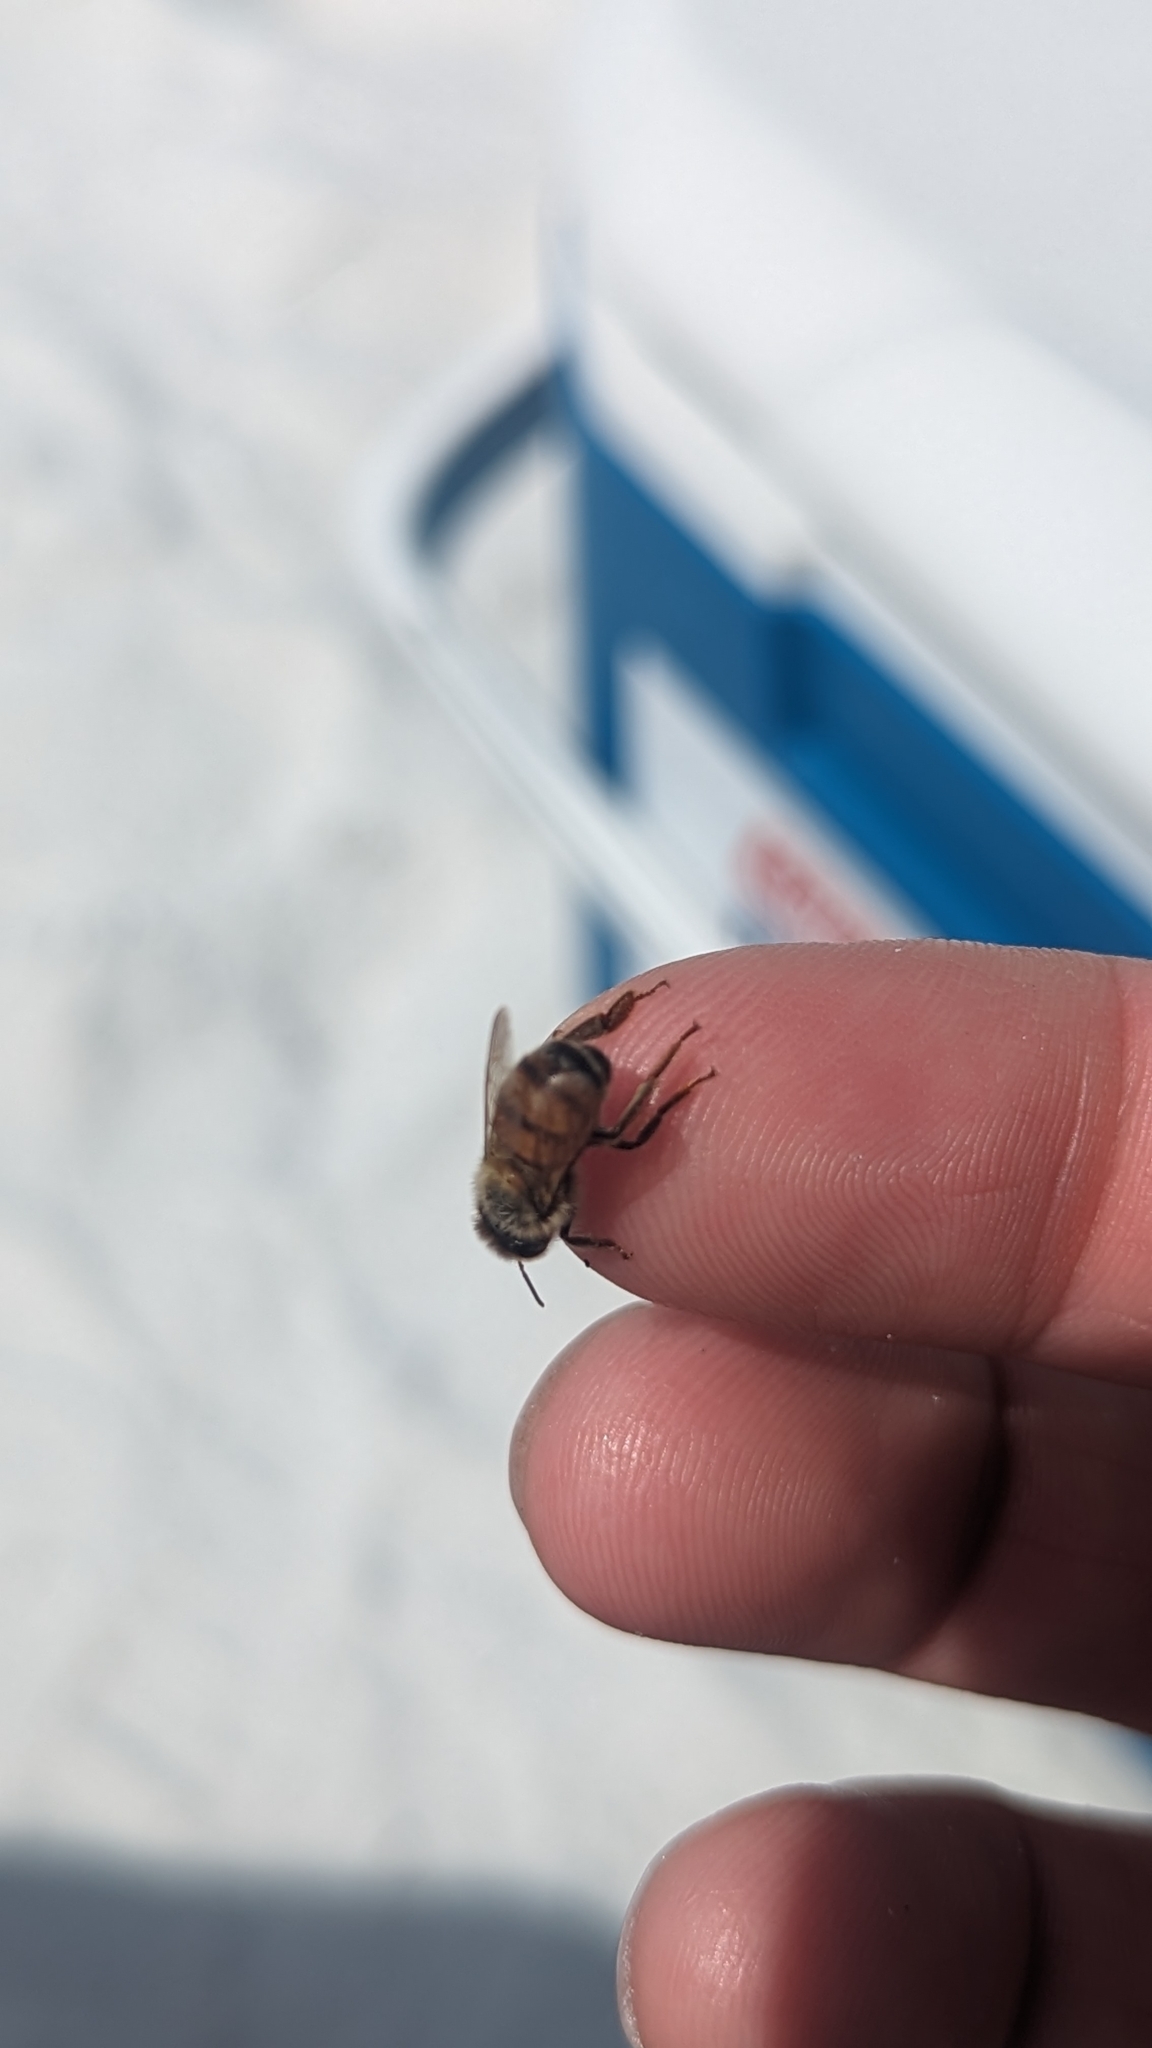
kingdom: Animalia
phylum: Arthropoda
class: Insecta
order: Hymenoptera
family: Apidae
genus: Apis
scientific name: Apis mellifera
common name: Honey bee
